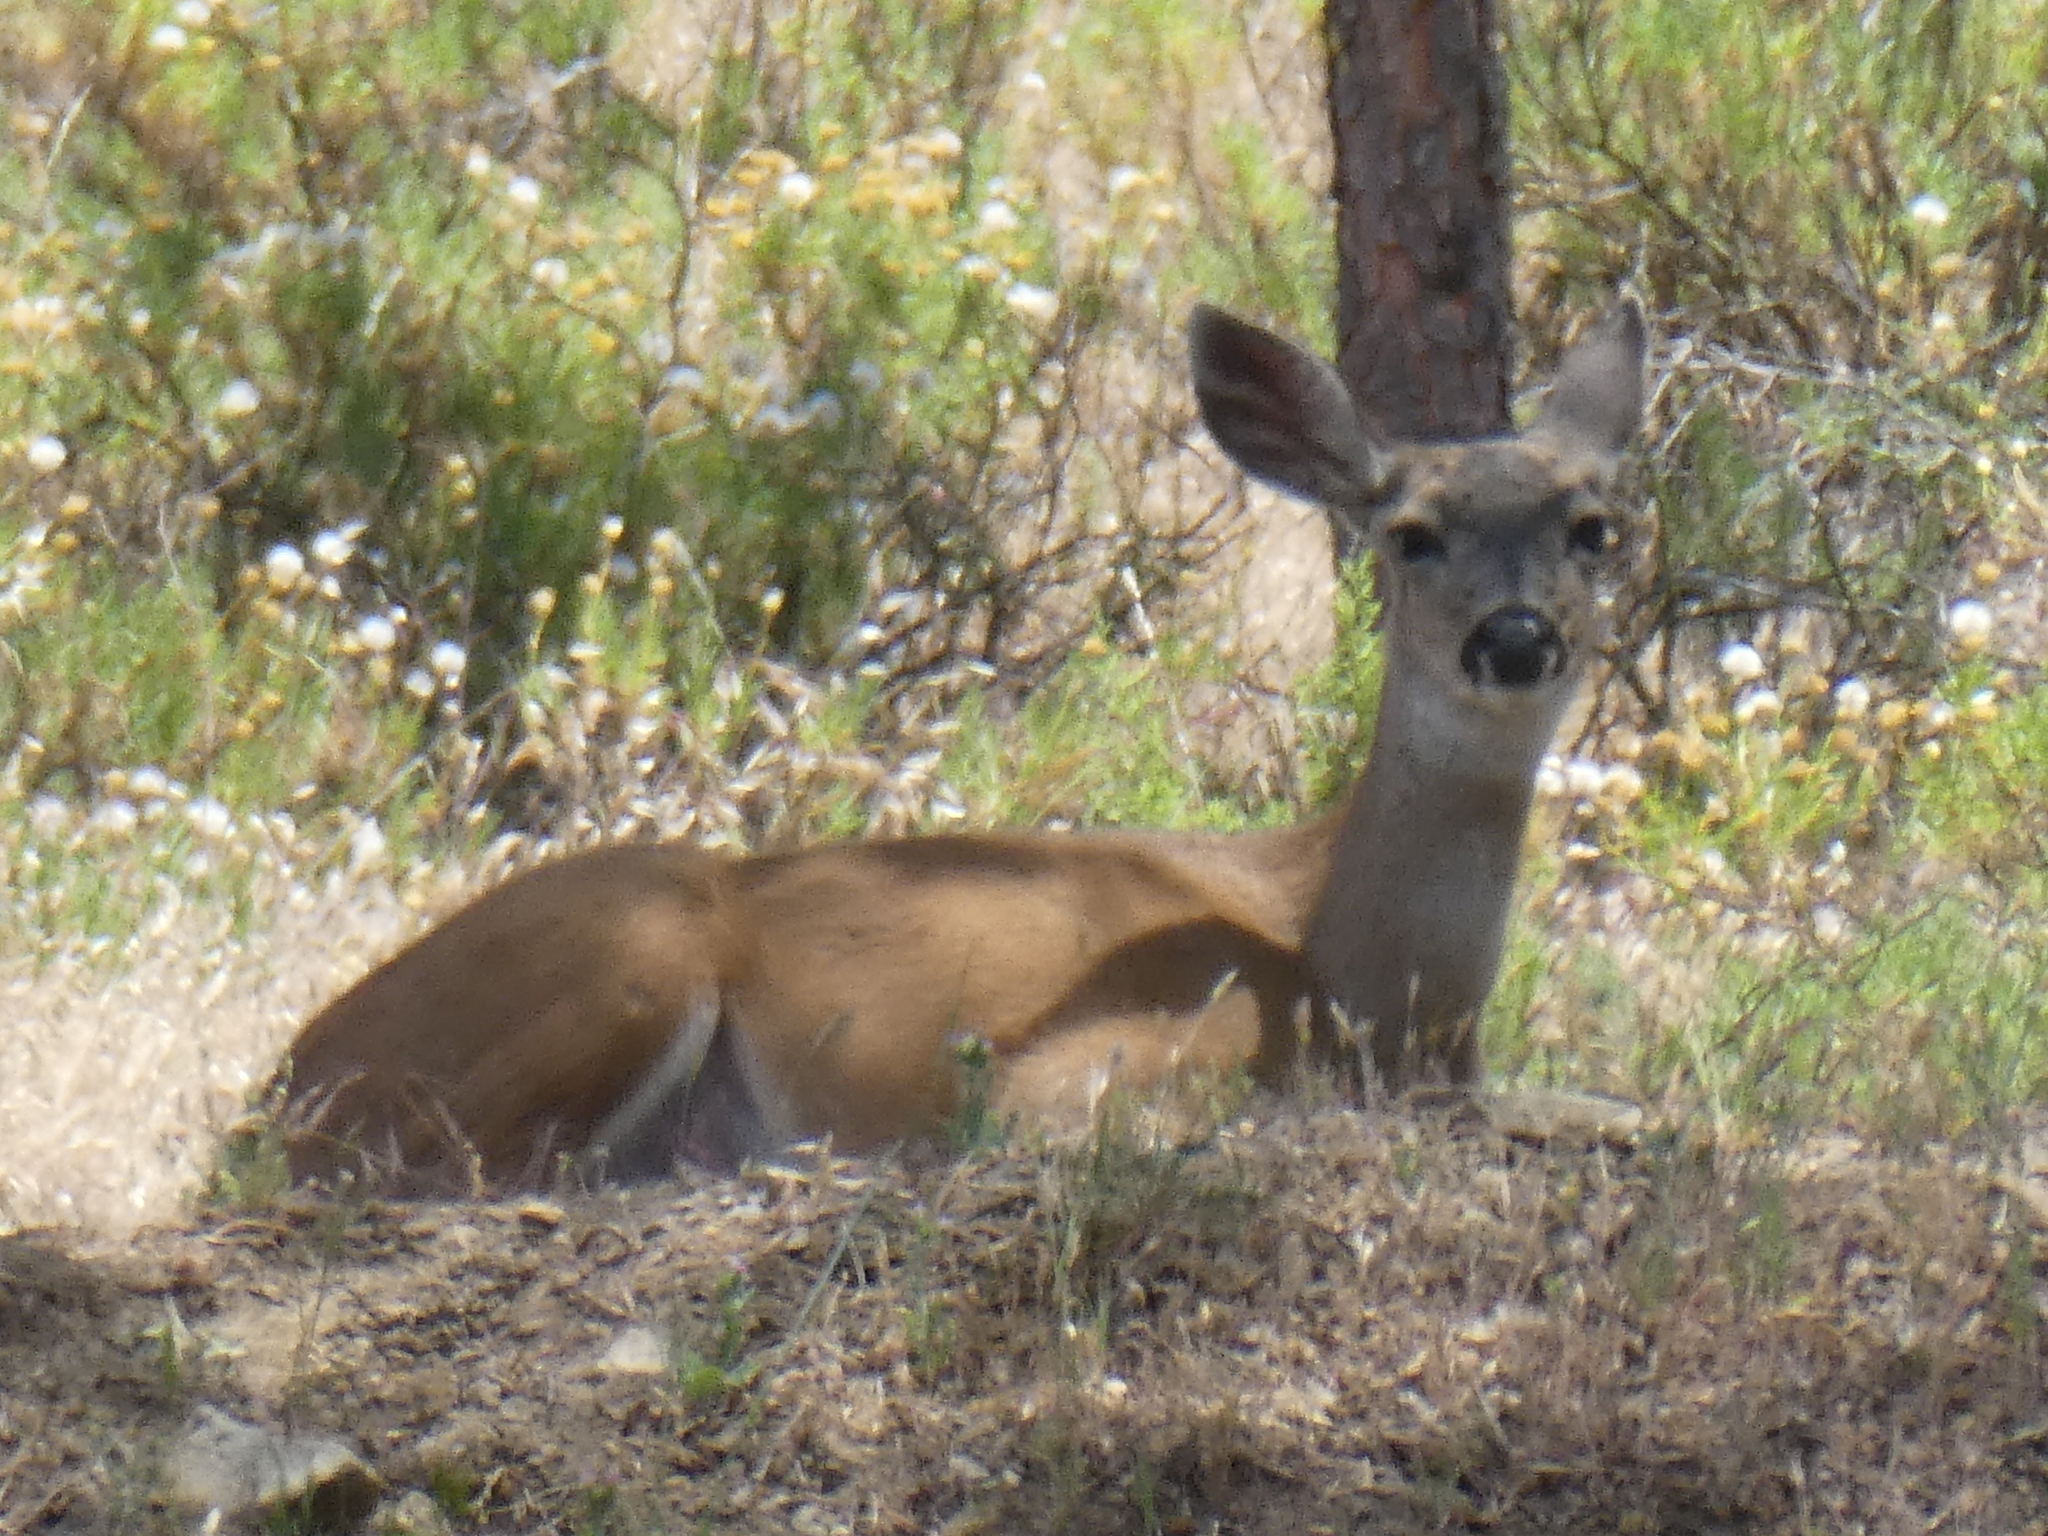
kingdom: Animalia
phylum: Chordata
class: Mammalia
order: Artiodactyla
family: Cervidae
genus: Odocoileus
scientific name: Odocoileus hemionus
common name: Mule deer
